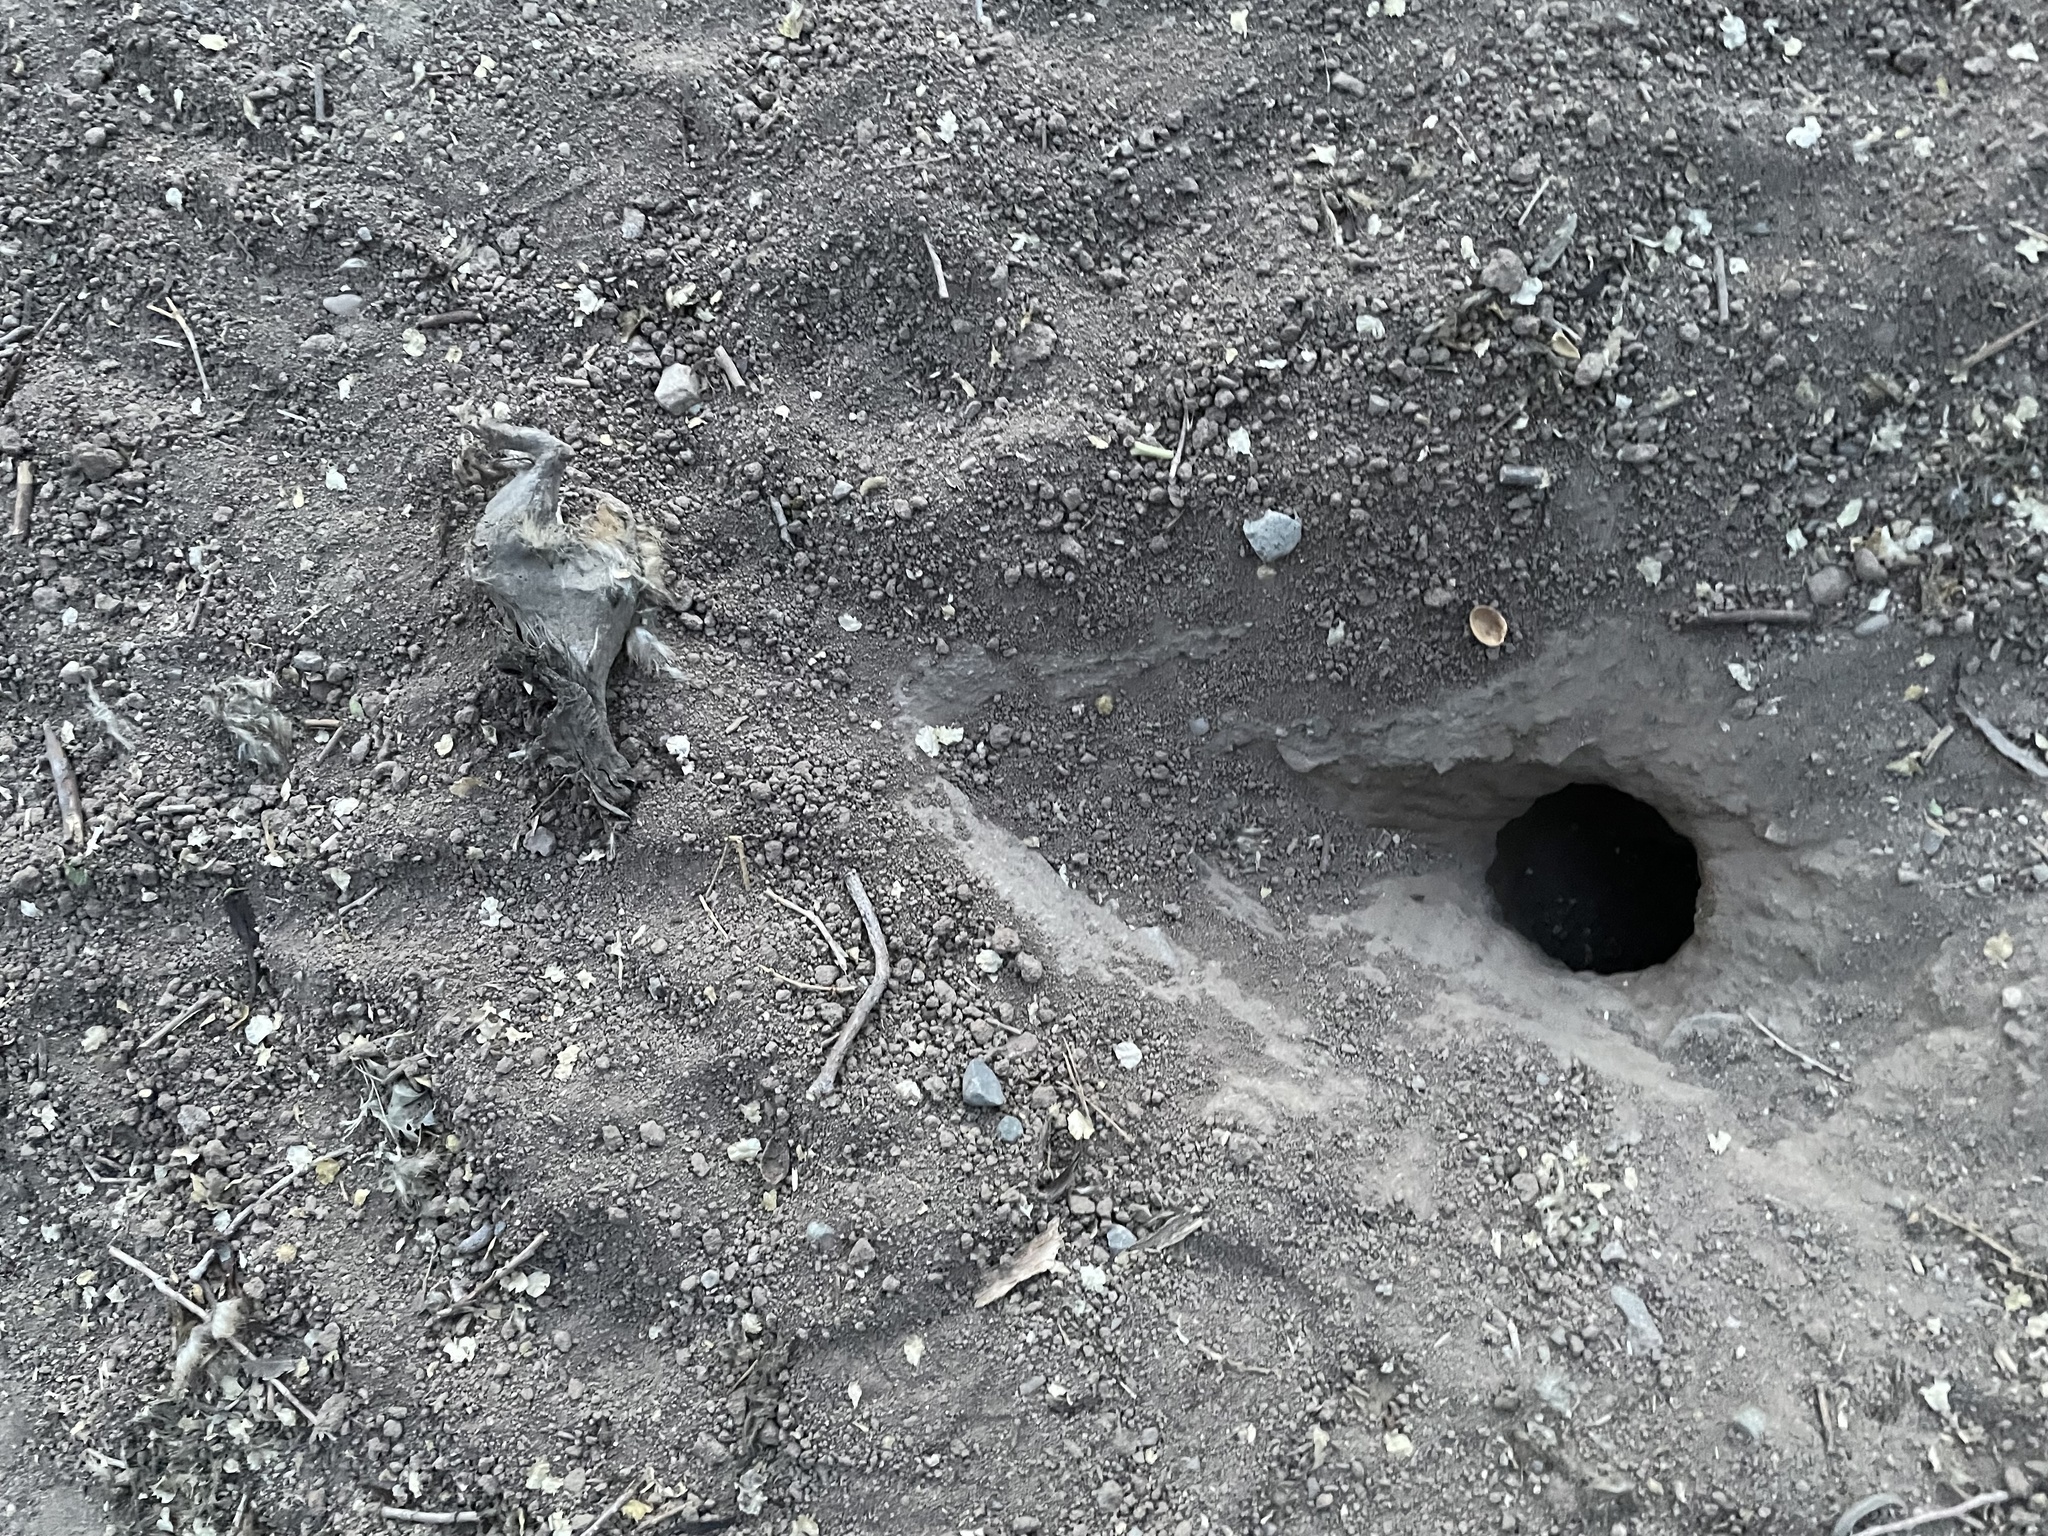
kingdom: Animalia
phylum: Chordata
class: Mammalia
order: Rodentia
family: Sciuridae
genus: Cynomys
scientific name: Cynomys gunnisoni
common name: Gunnison's prairie dog
